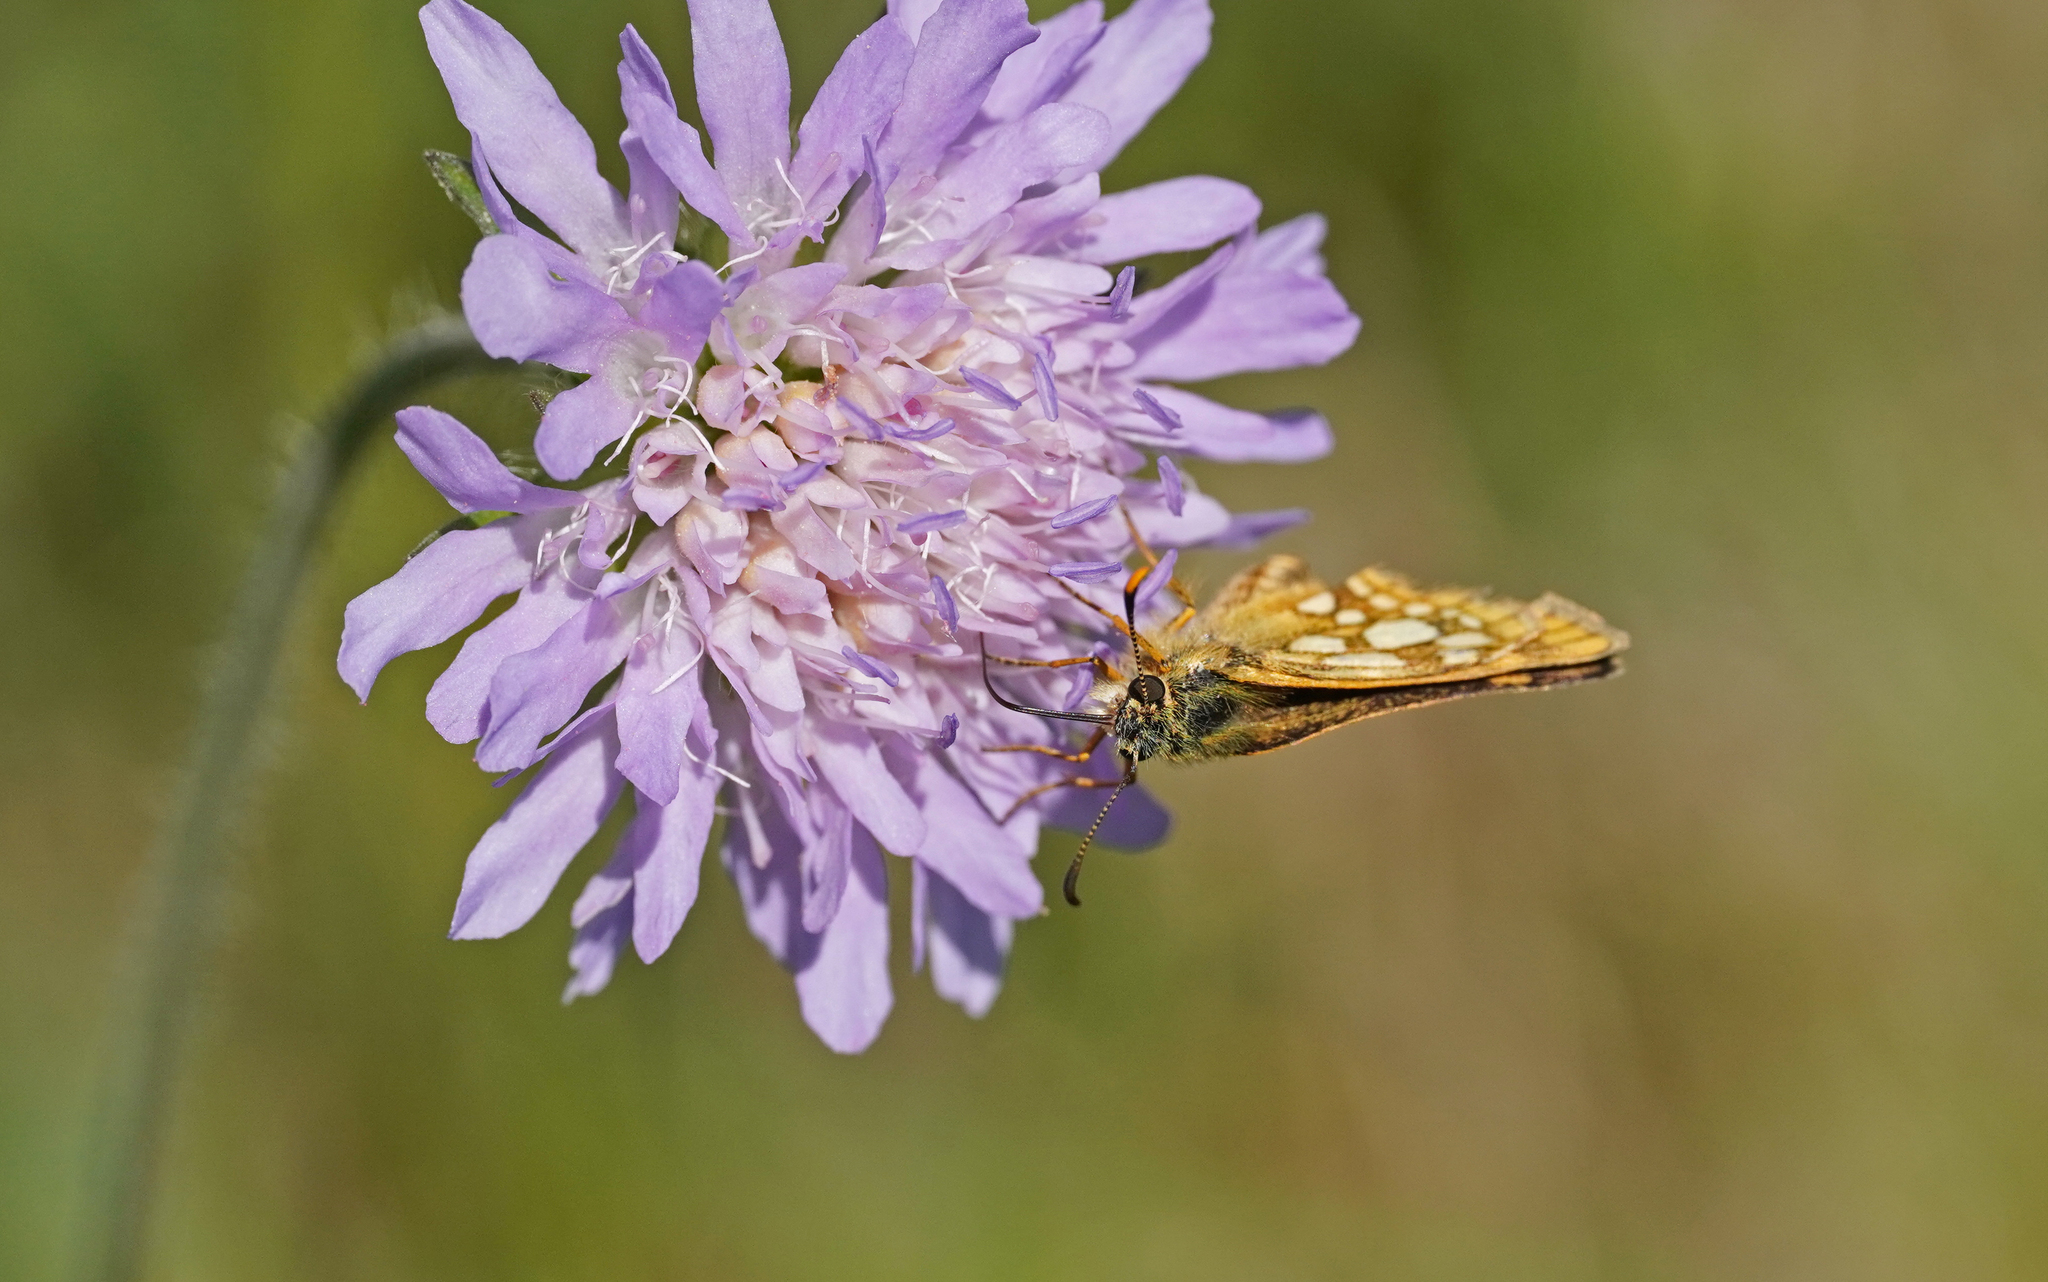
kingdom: Animalia
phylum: Arthropoda
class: Insecta
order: Lepidoptera
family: Hesperiidae
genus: Carterocephalus
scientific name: Carterocephalus palaemon
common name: Chequered skipper
